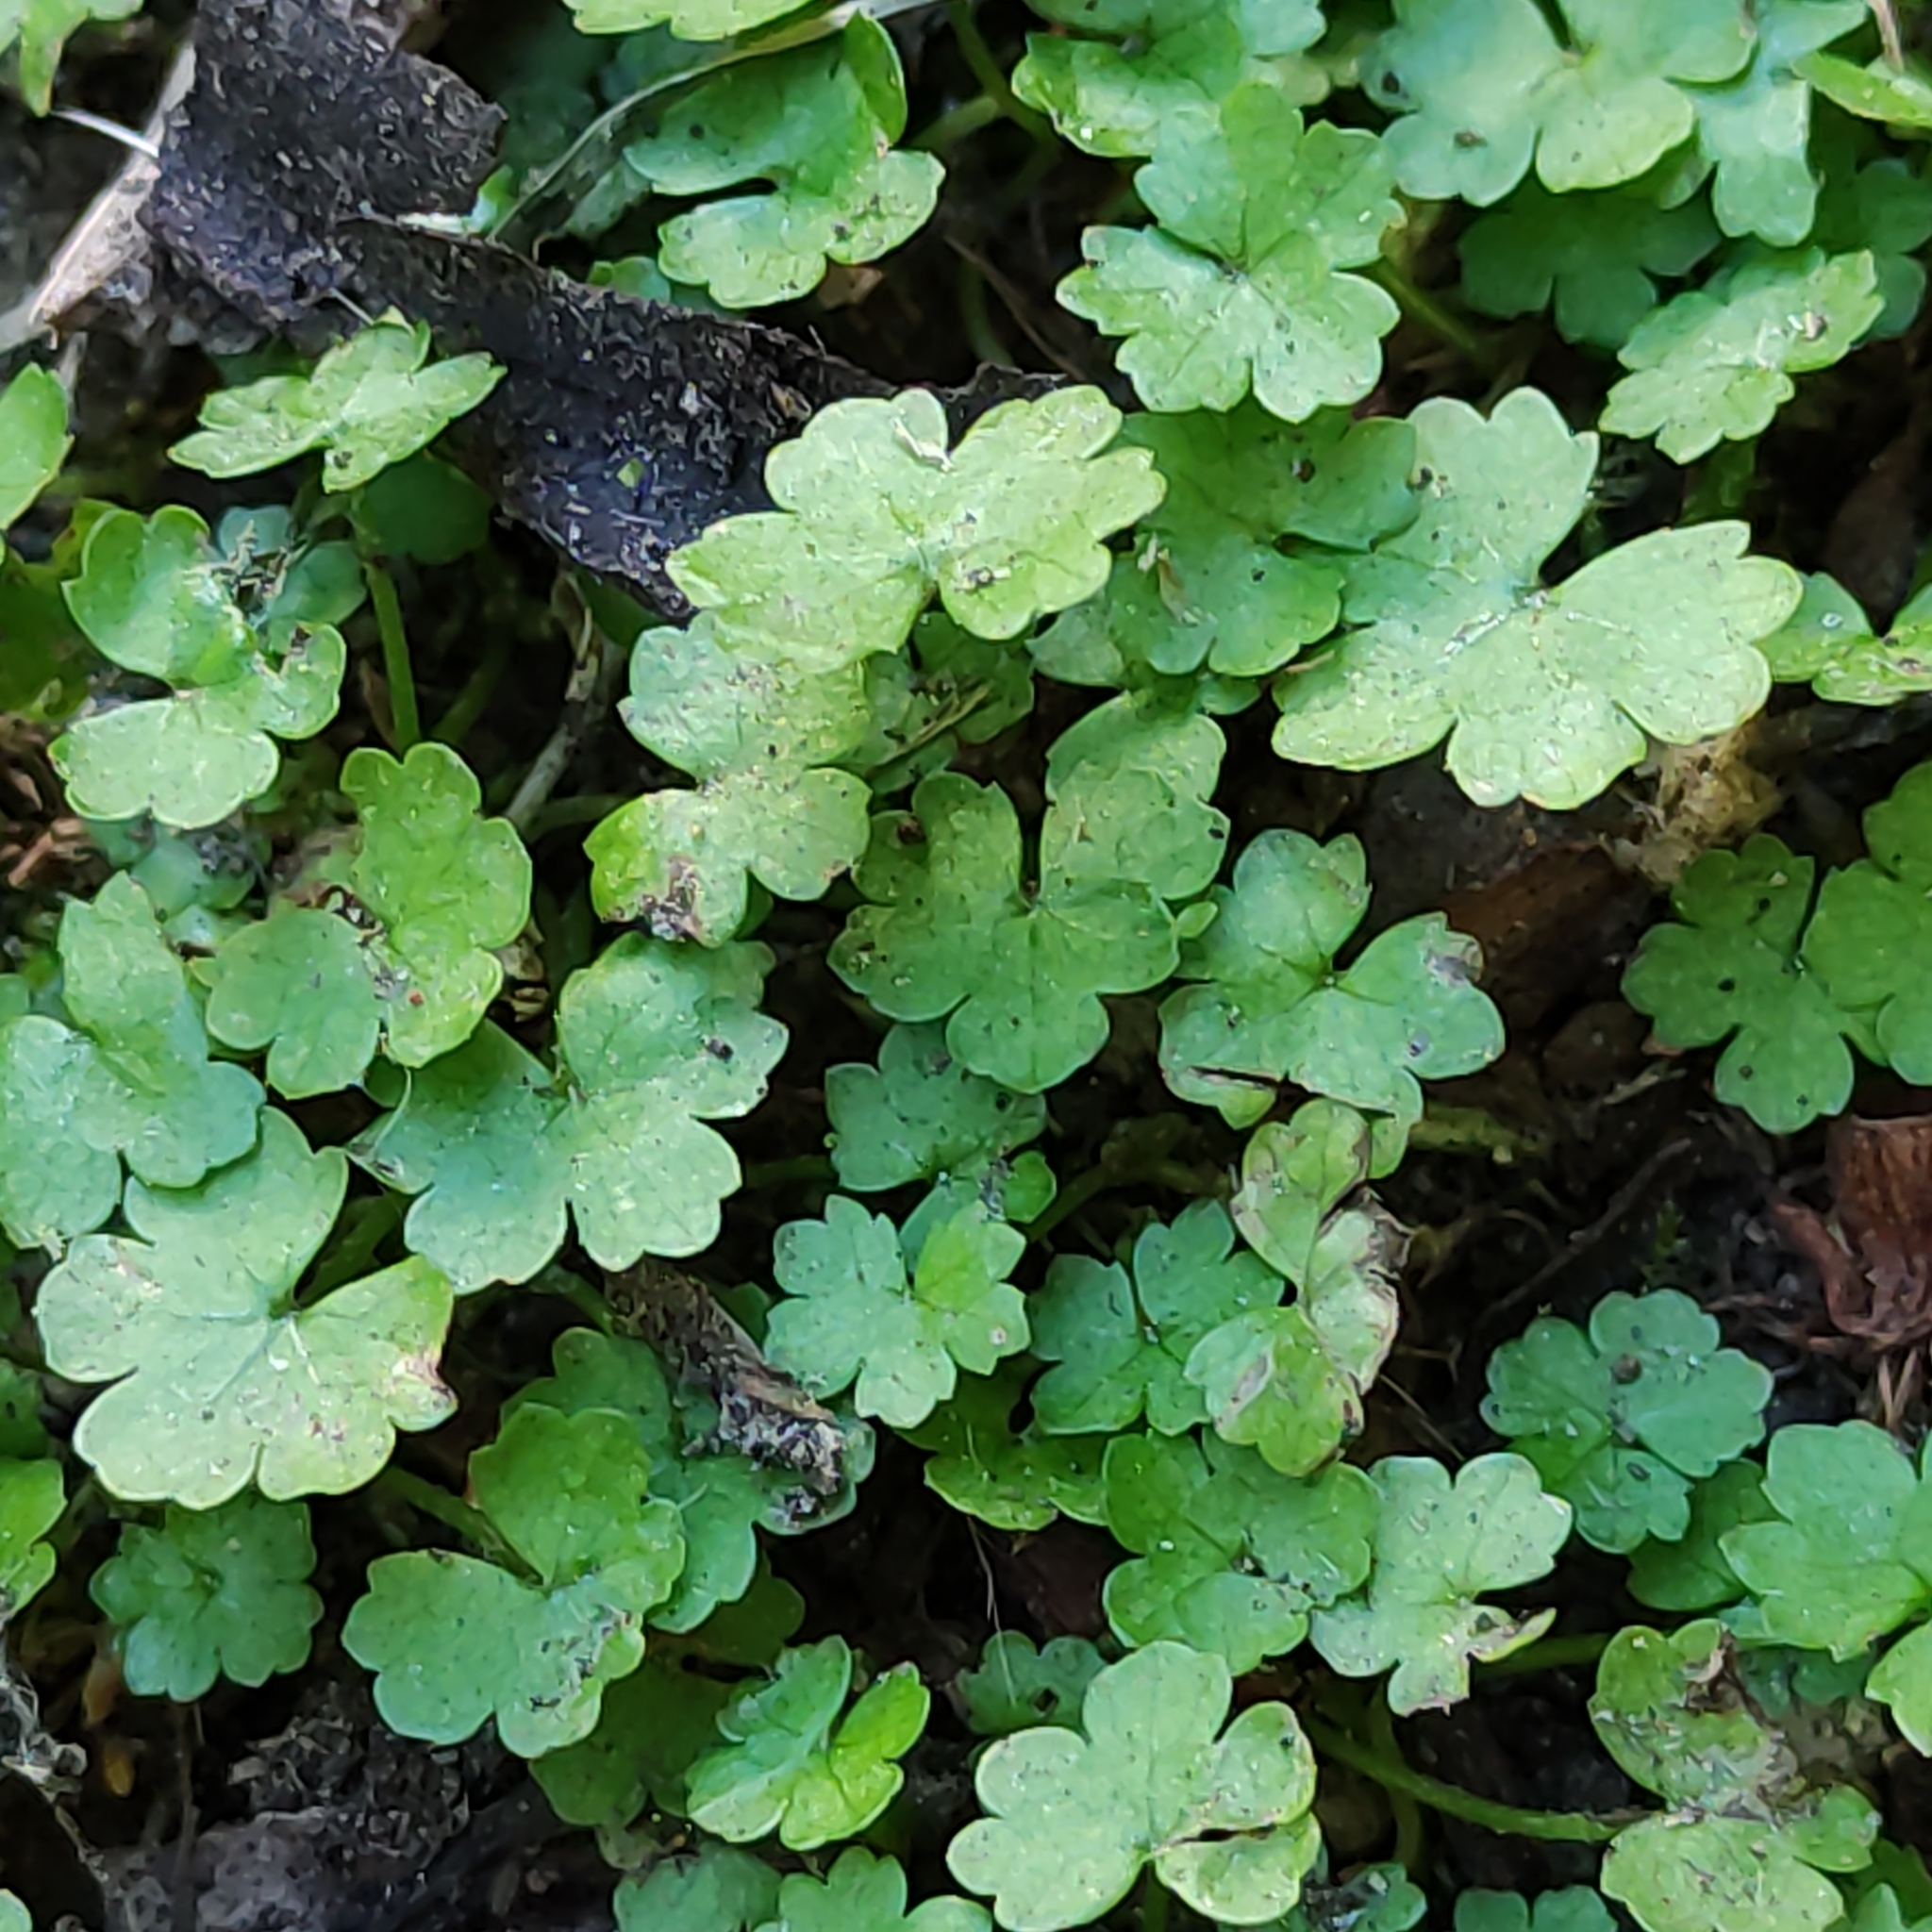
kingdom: Plantae
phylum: Tracheophyta
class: Magnoliopsida
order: Apiales
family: Araliaceae
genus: Hydrocotyle
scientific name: Hydrocotyle heteromeria
